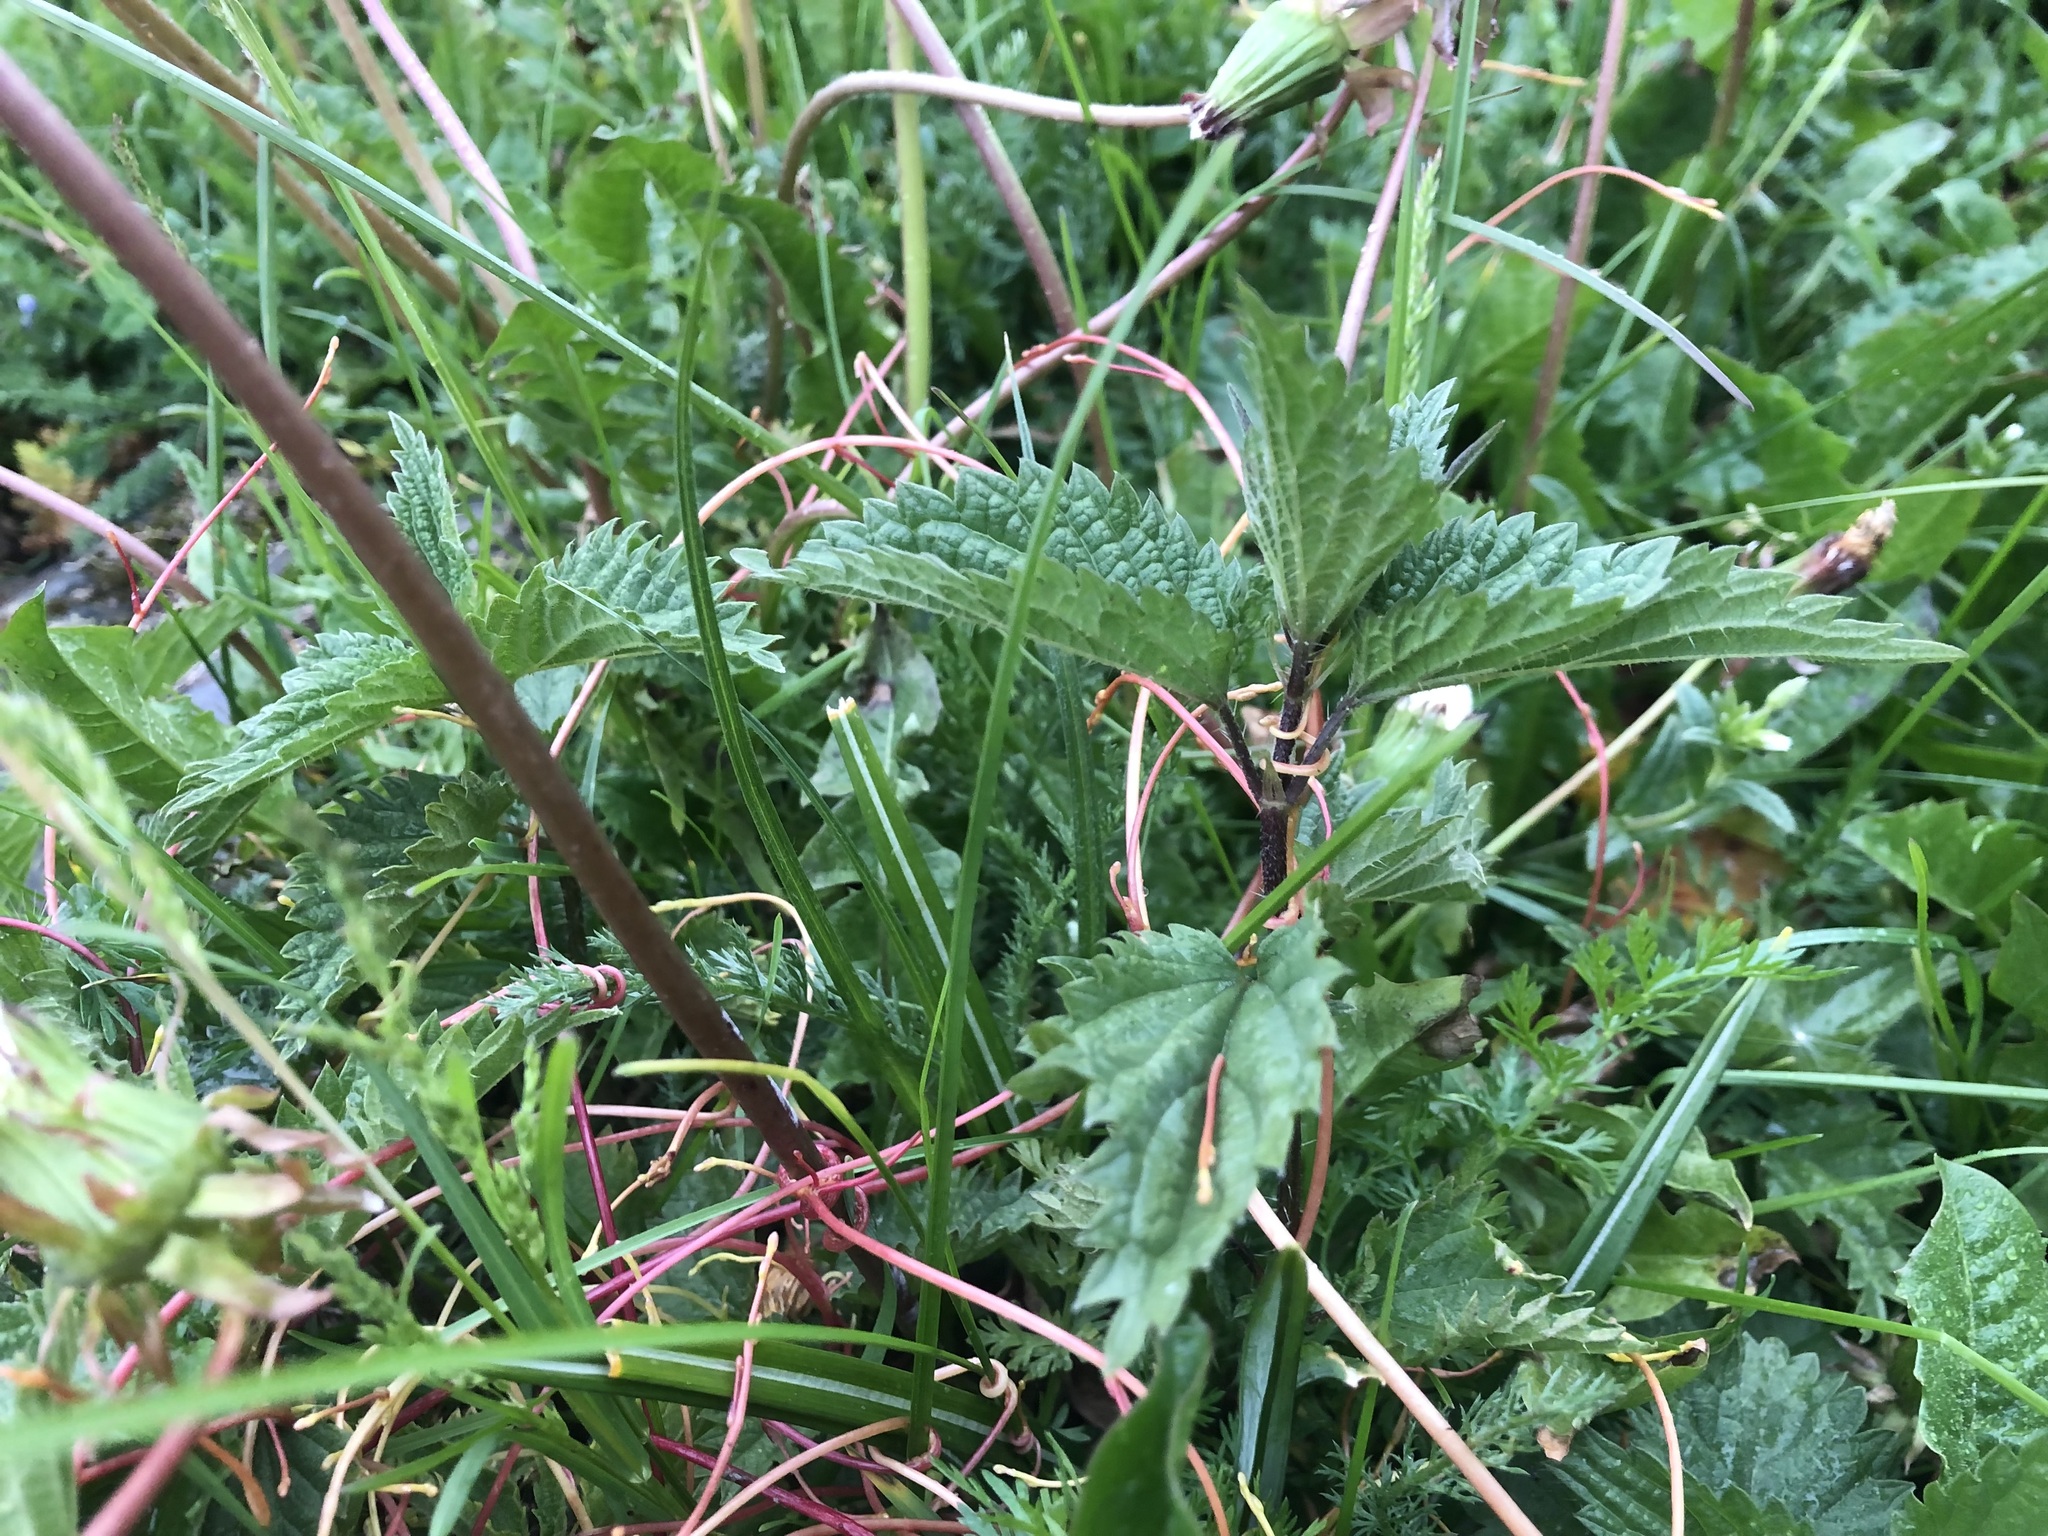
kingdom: Plantae
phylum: Tracheophyta
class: Magnoliopsida
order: Solanales
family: Convolvulaceae
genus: Cuscuta
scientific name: Cuscuta europaea
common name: Greater dodder
